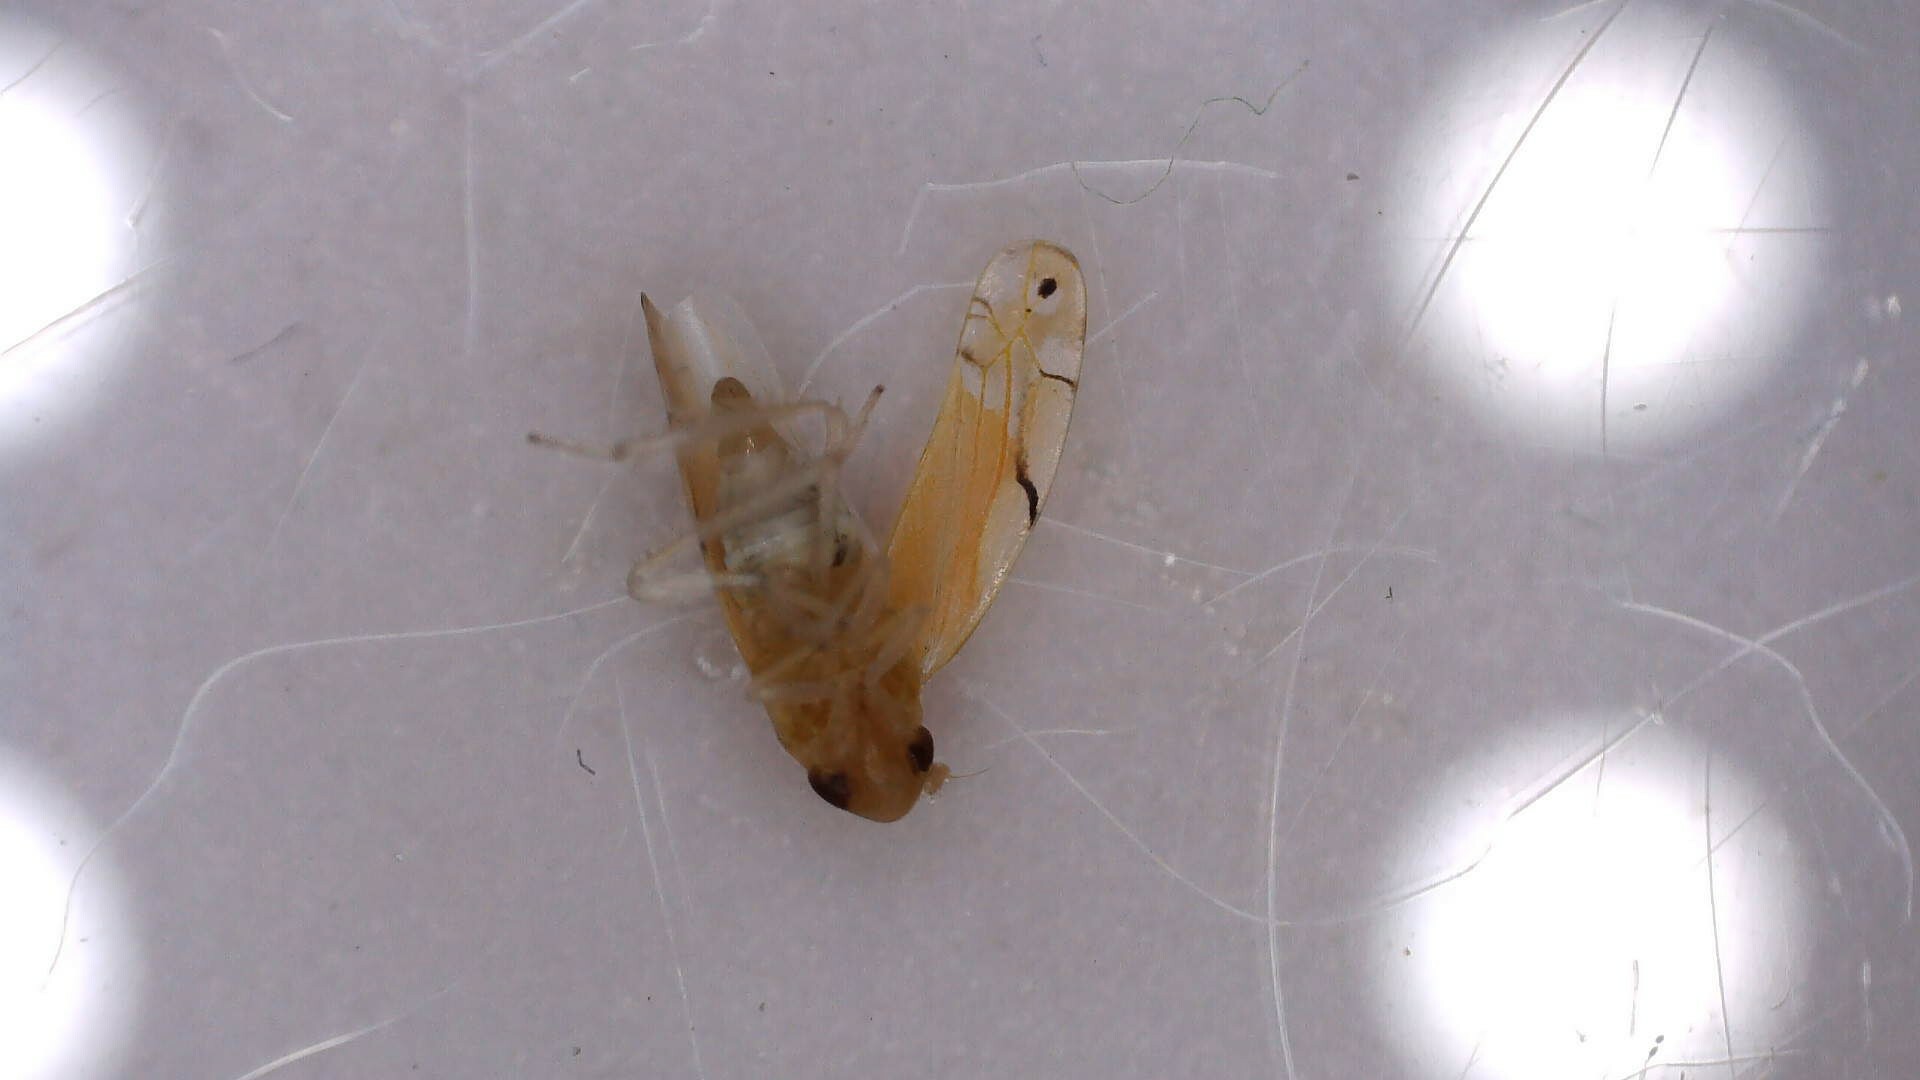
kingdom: Animalia
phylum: Arthropoda
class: Insecta
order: Hemiptera
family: Cicadellidae
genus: Eurhadina
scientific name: Eurhadina pulchella
